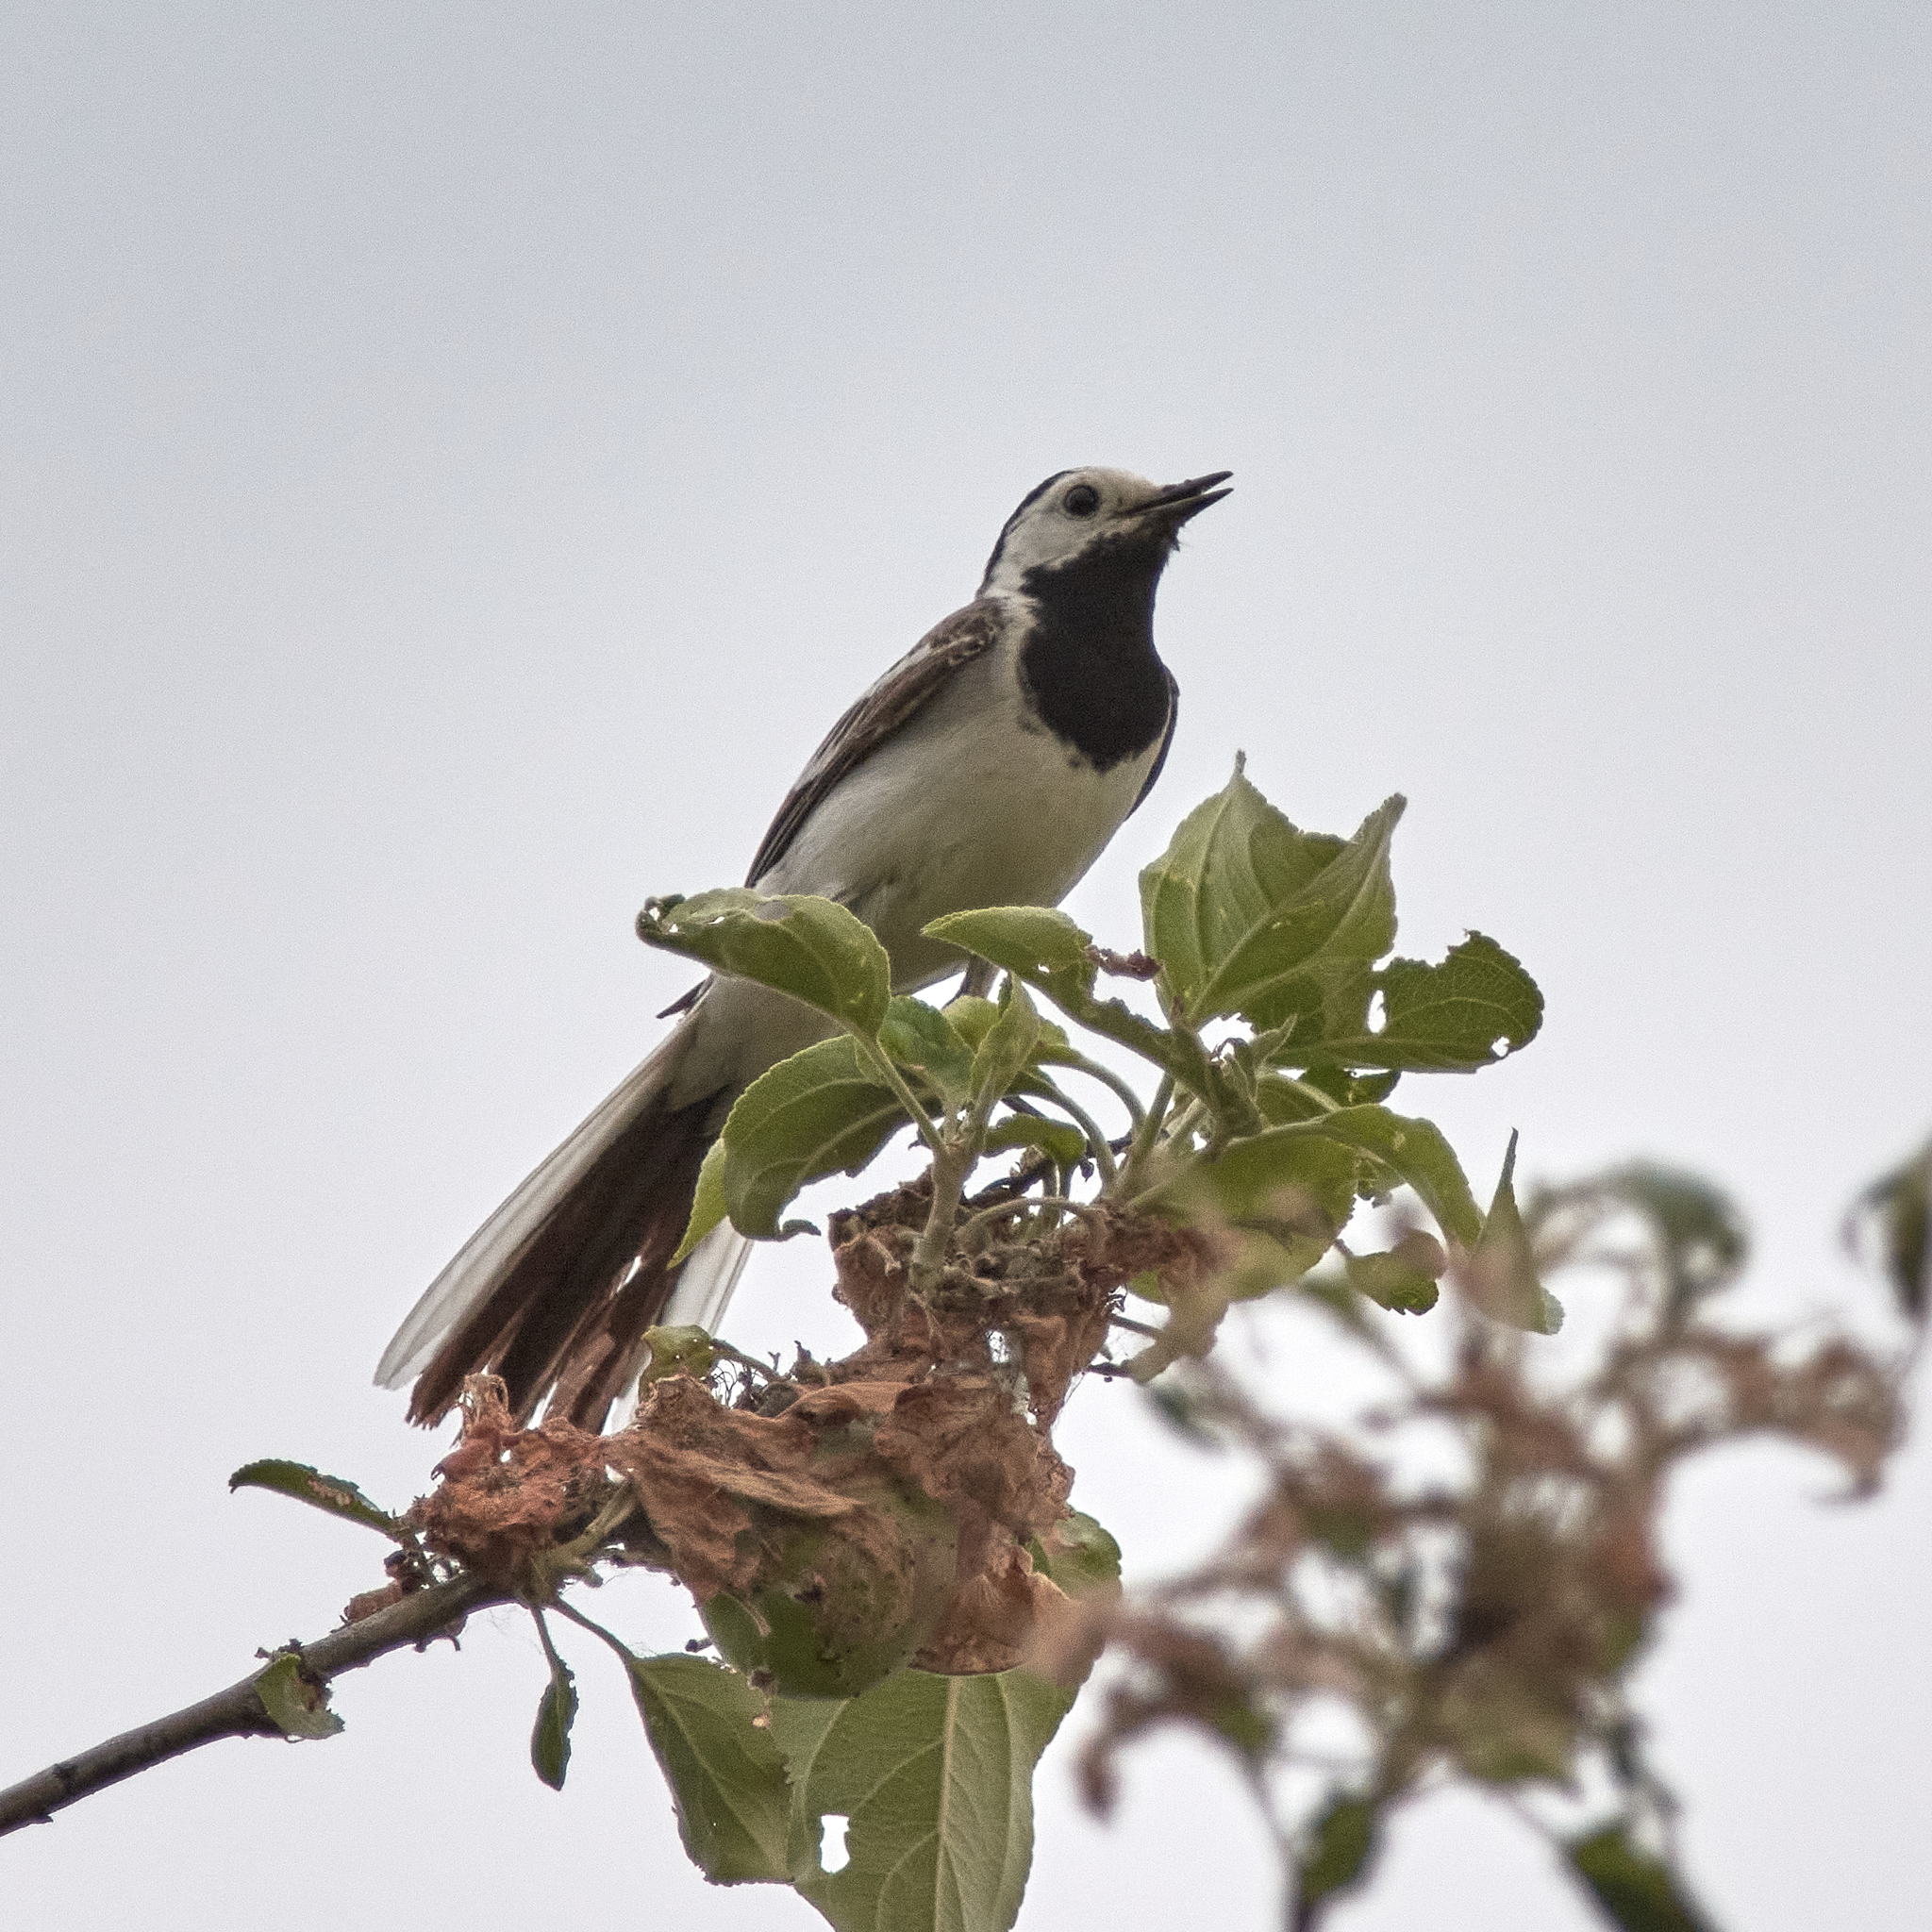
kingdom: Animalia
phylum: Chordata
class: Aves
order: Passeriformes
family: Motacillidae
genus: Motacilla
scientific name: Motacilla alba
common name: White wagtail
